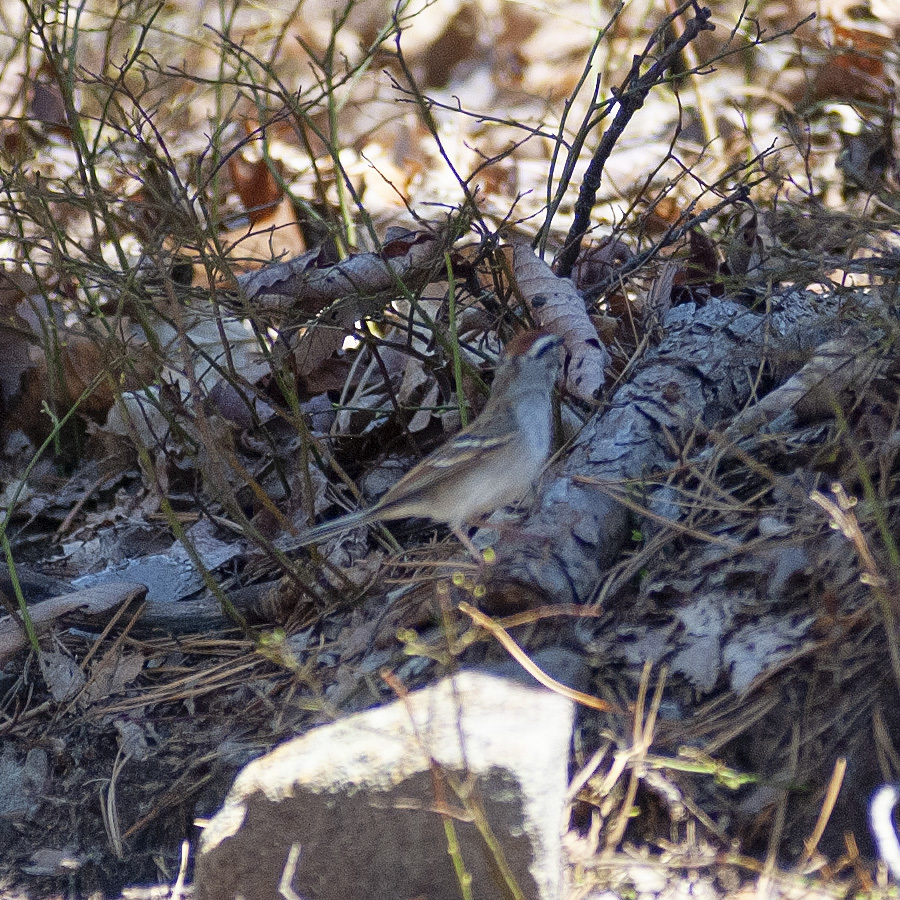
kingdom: Animalia
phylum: Chordata
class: Aves
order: Passeriformes
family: Passerellidae
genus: Spizella
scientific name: Spizella passerina
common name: Chipping sparrow
